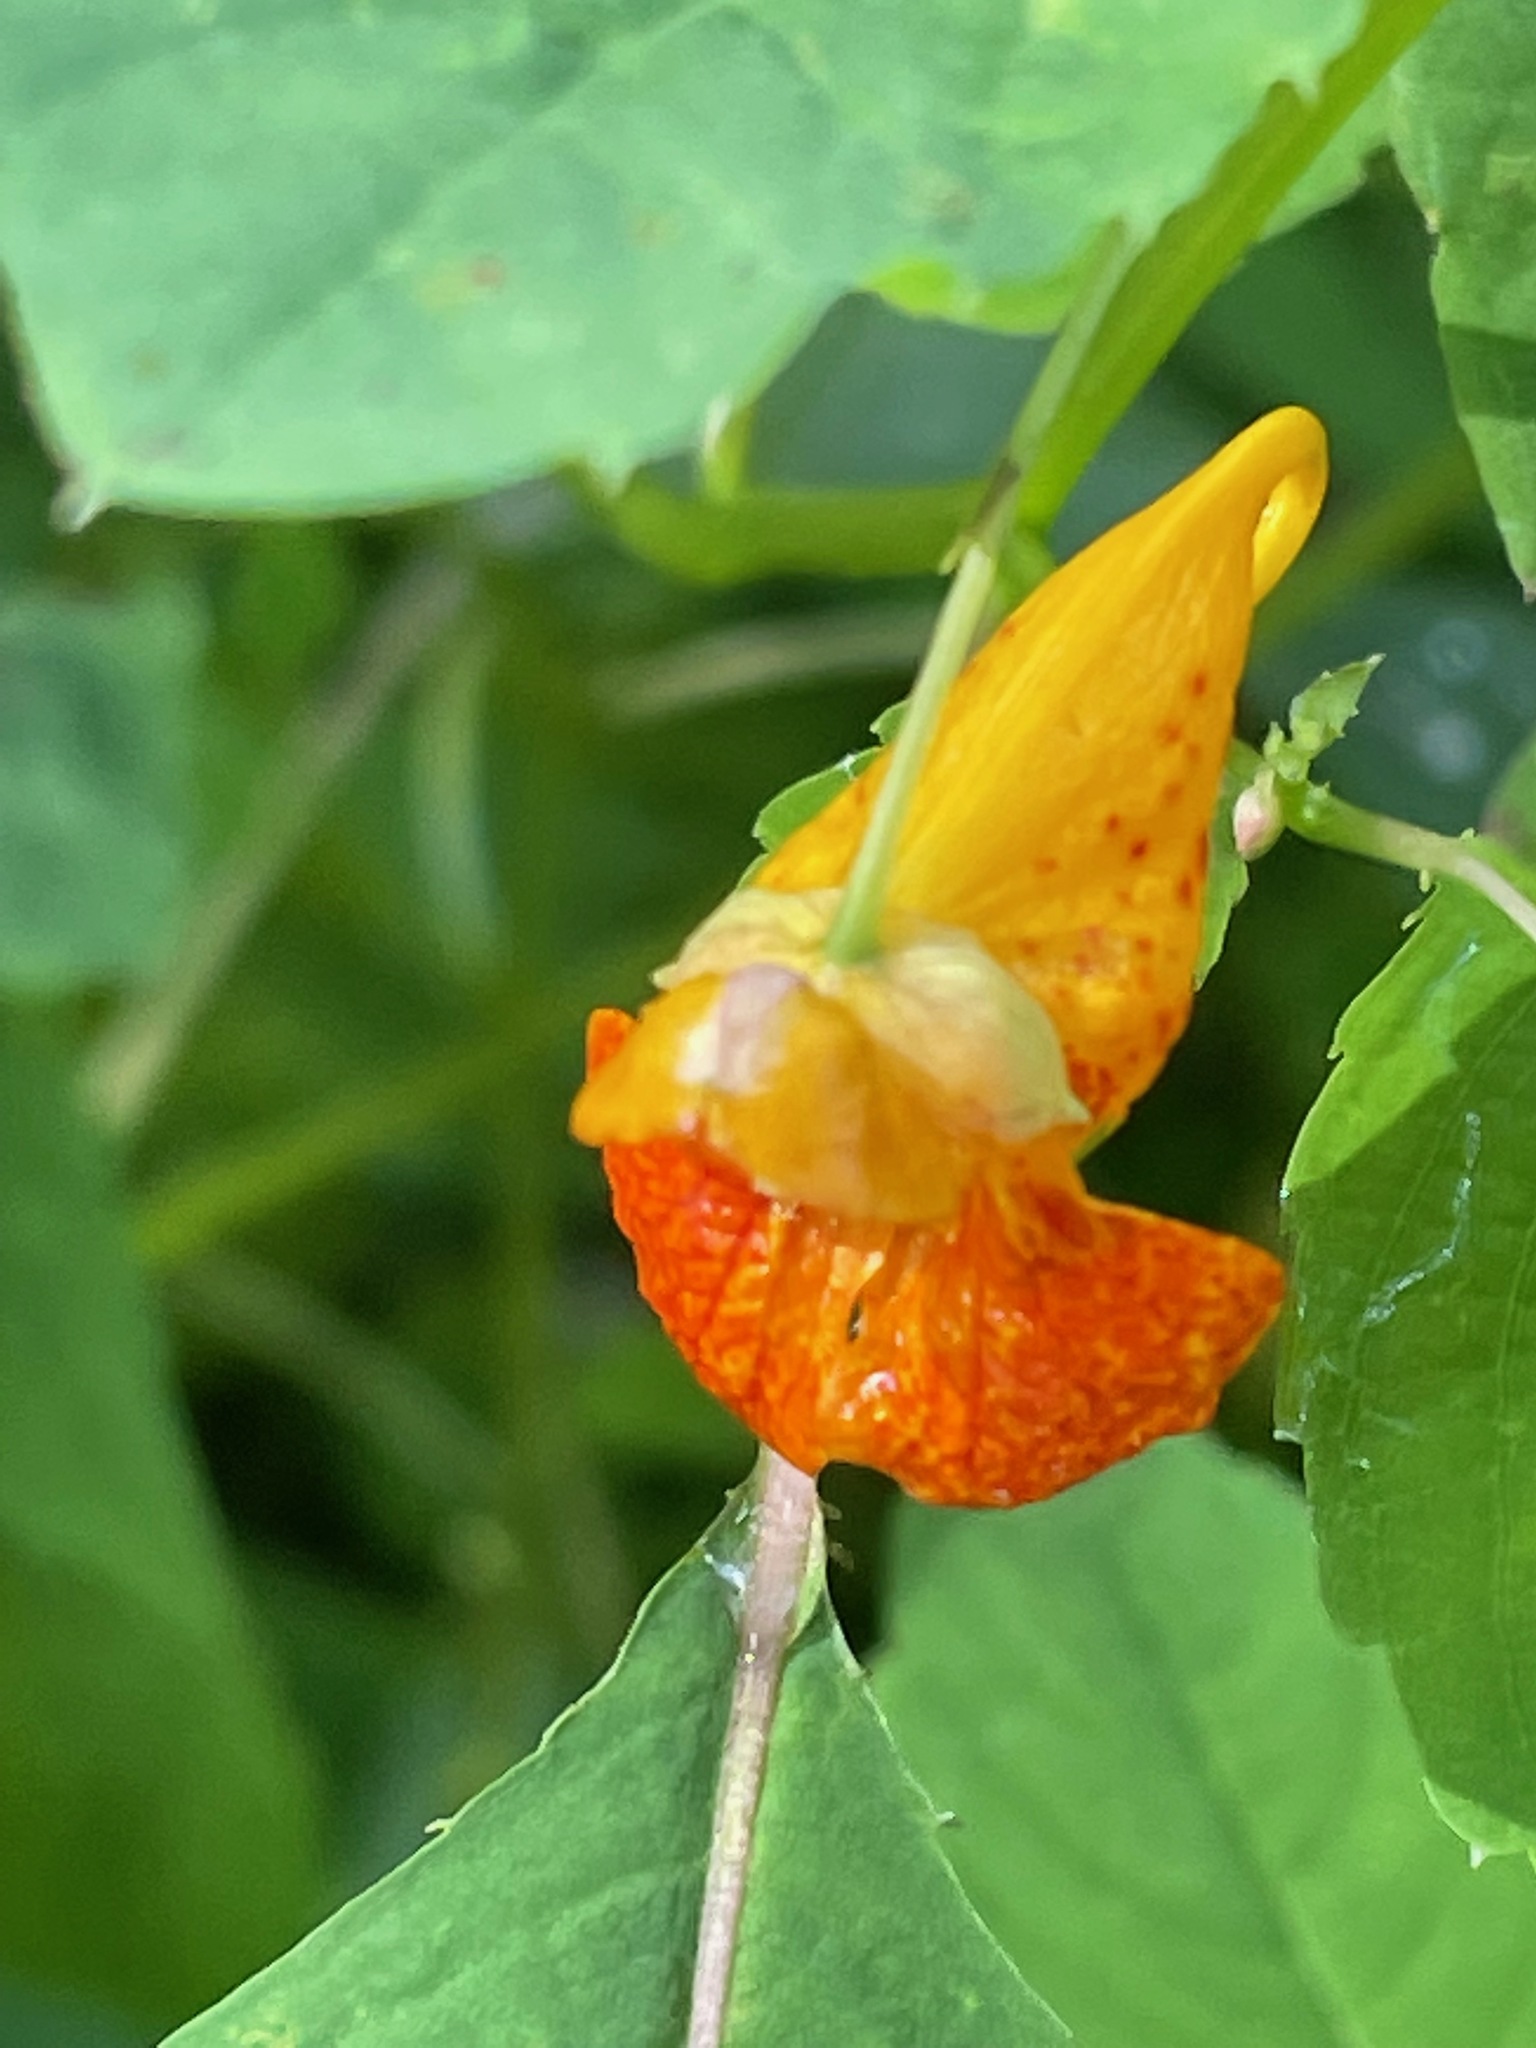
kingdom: Plantae
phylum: Tracheophyta
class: Magnoliopsida
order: Ericales
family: Balsaminaceae
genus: Impatiens
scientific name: Impatiens capensis
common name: Orange balsam
